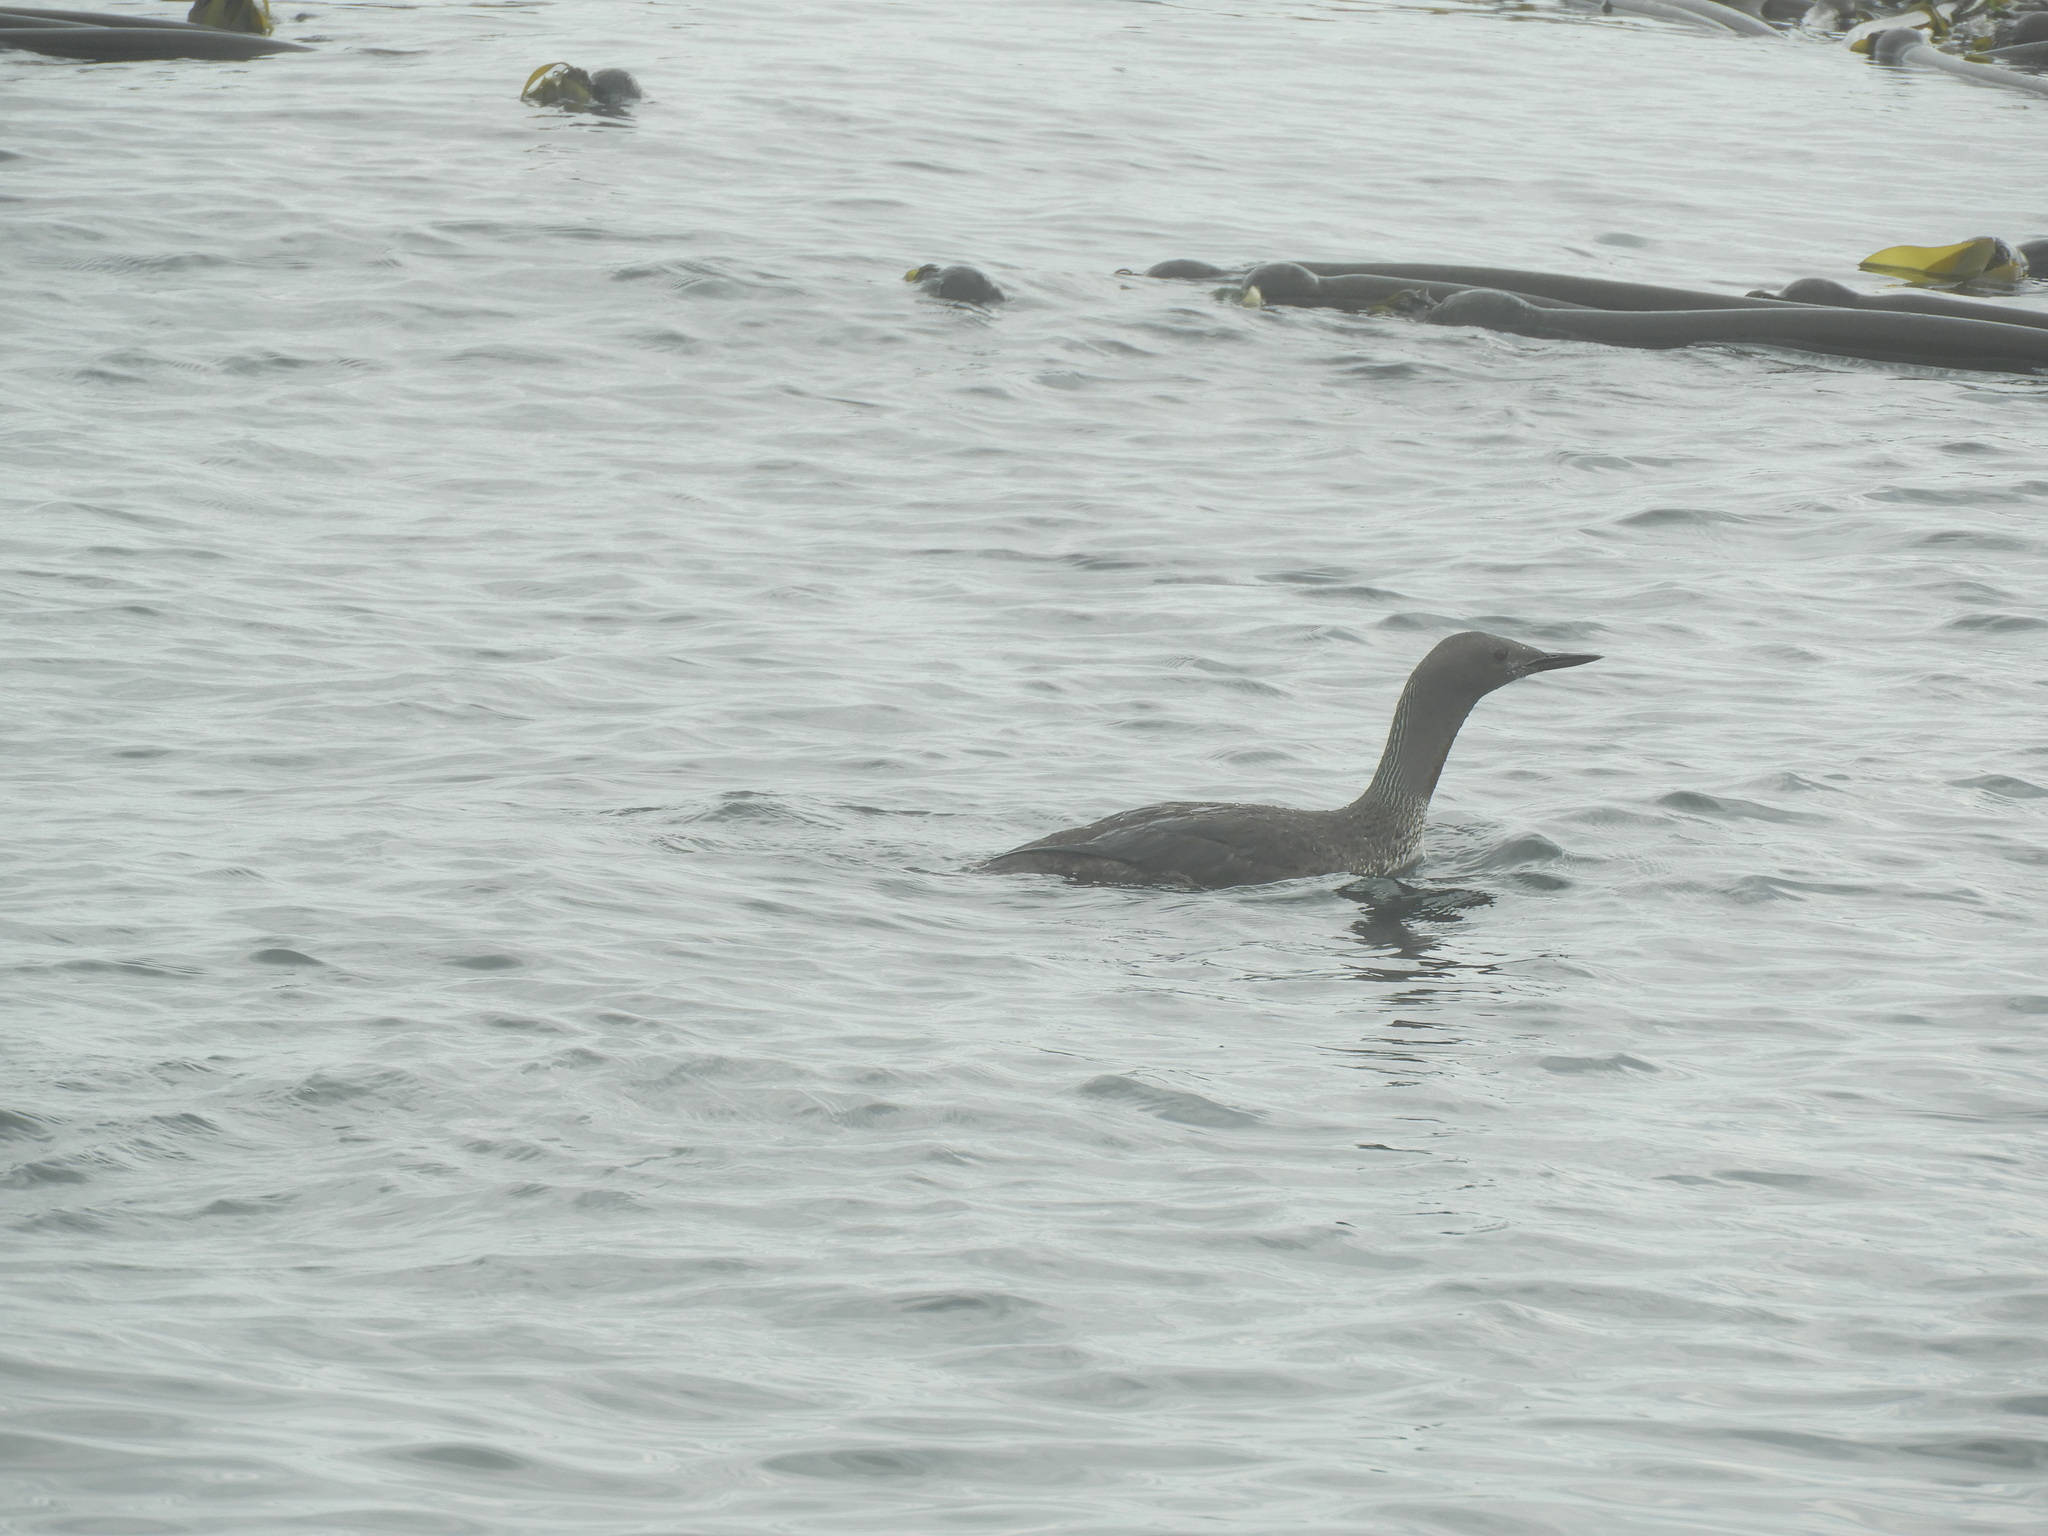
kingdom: Animalia
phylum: Chordata
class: Aves
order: Gaviiformes
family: Gaviidae
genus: Gavia
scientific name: Gavia stellata
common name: Red-throated loon
